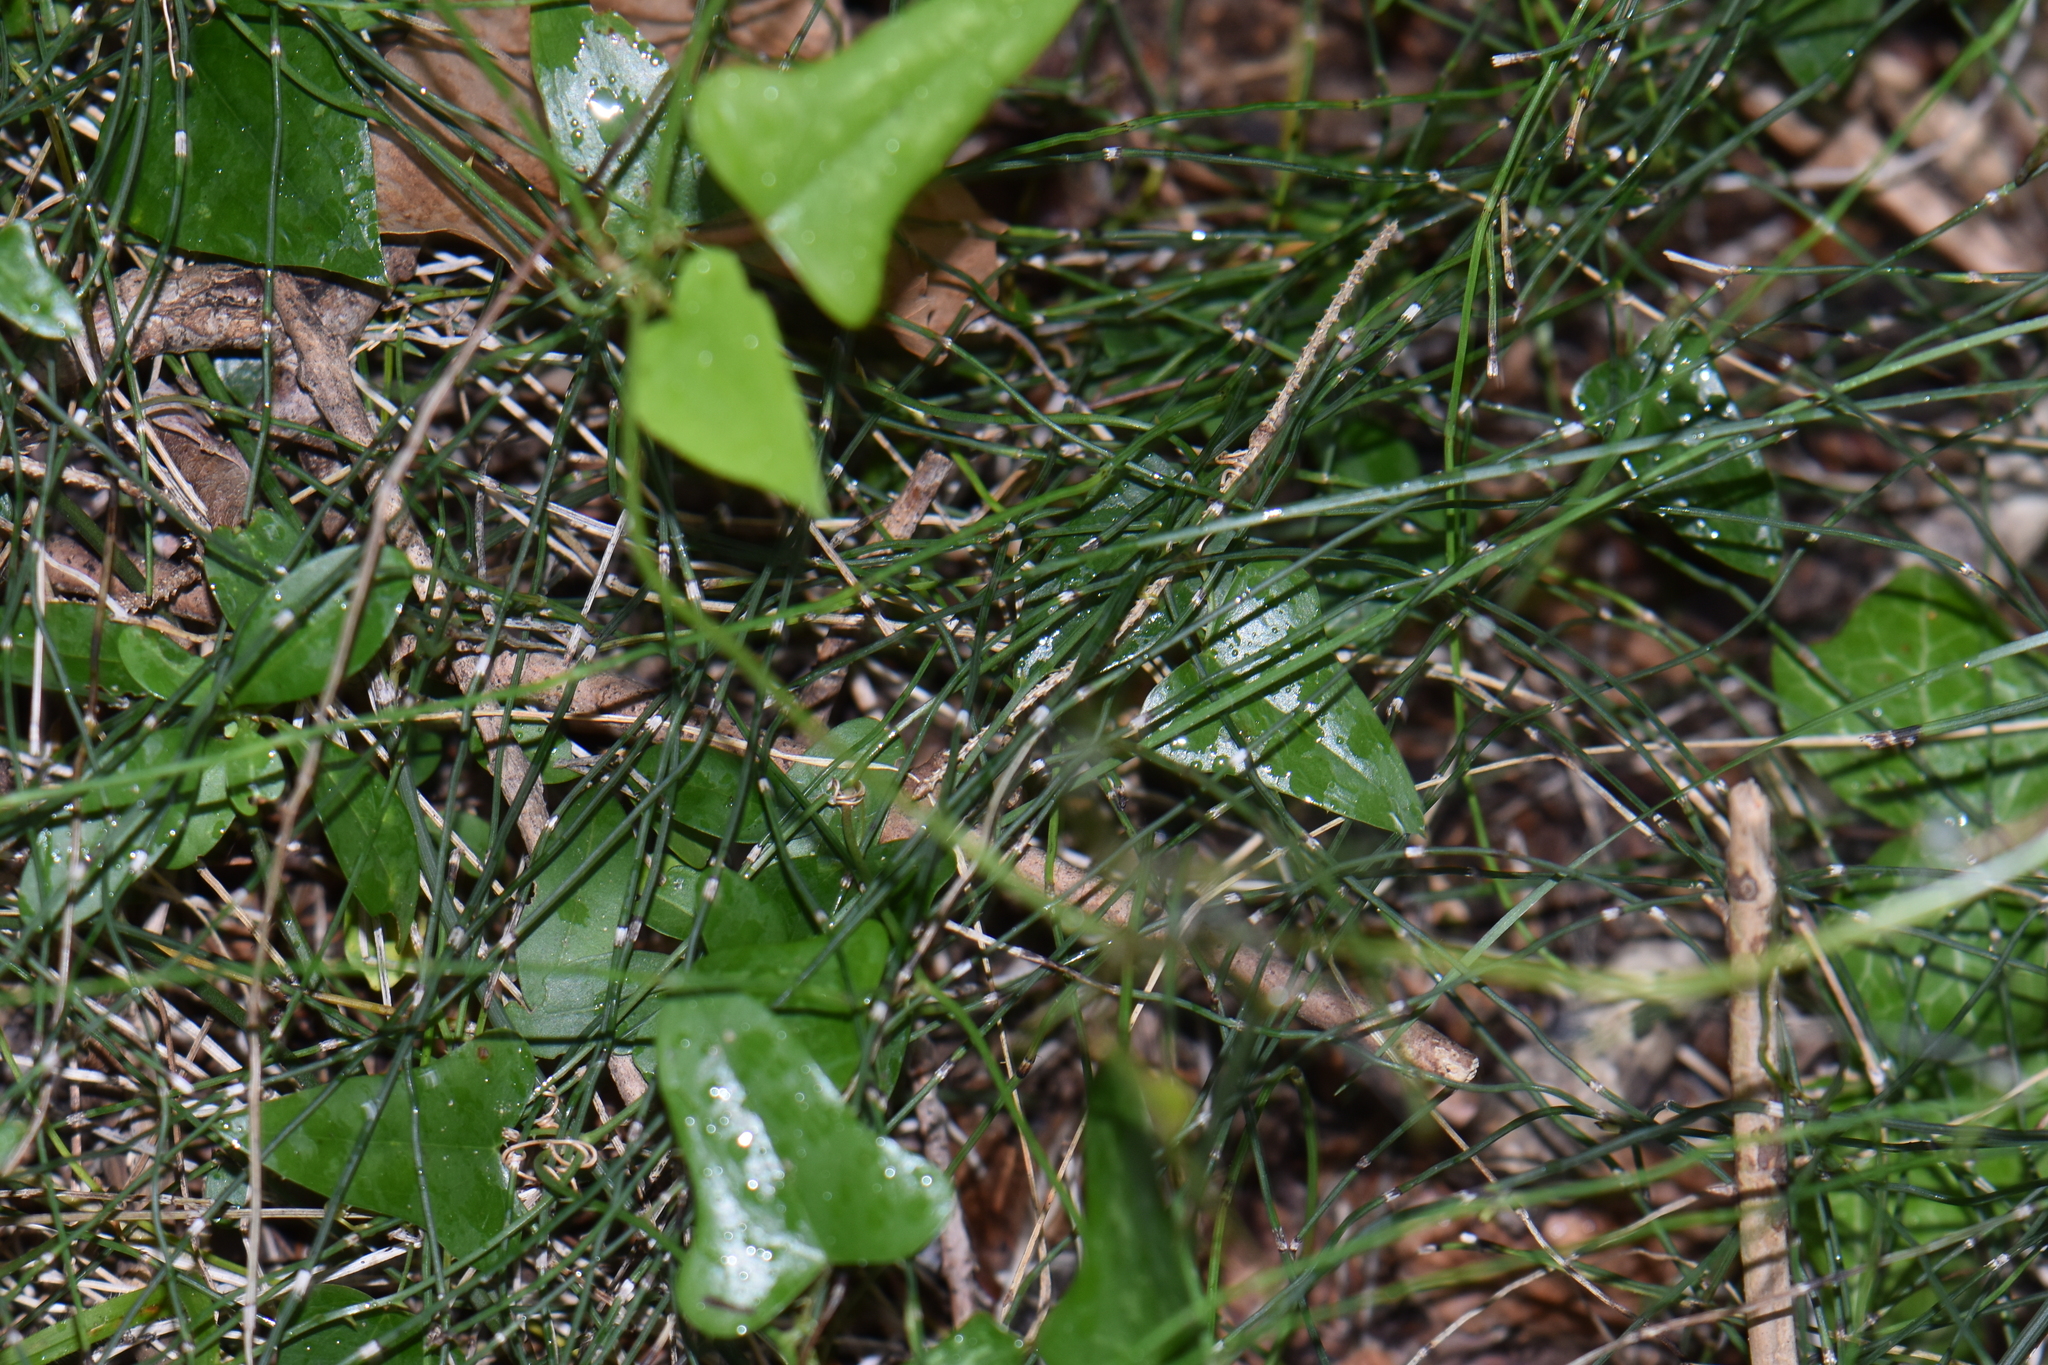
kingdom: Plantae
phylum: Tracheophyta
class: Polypodiopsida
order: Equisetales
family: Equisetaceae
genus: Equisetum
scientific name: Equisetum ramosissimum
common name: Branched horsetail
